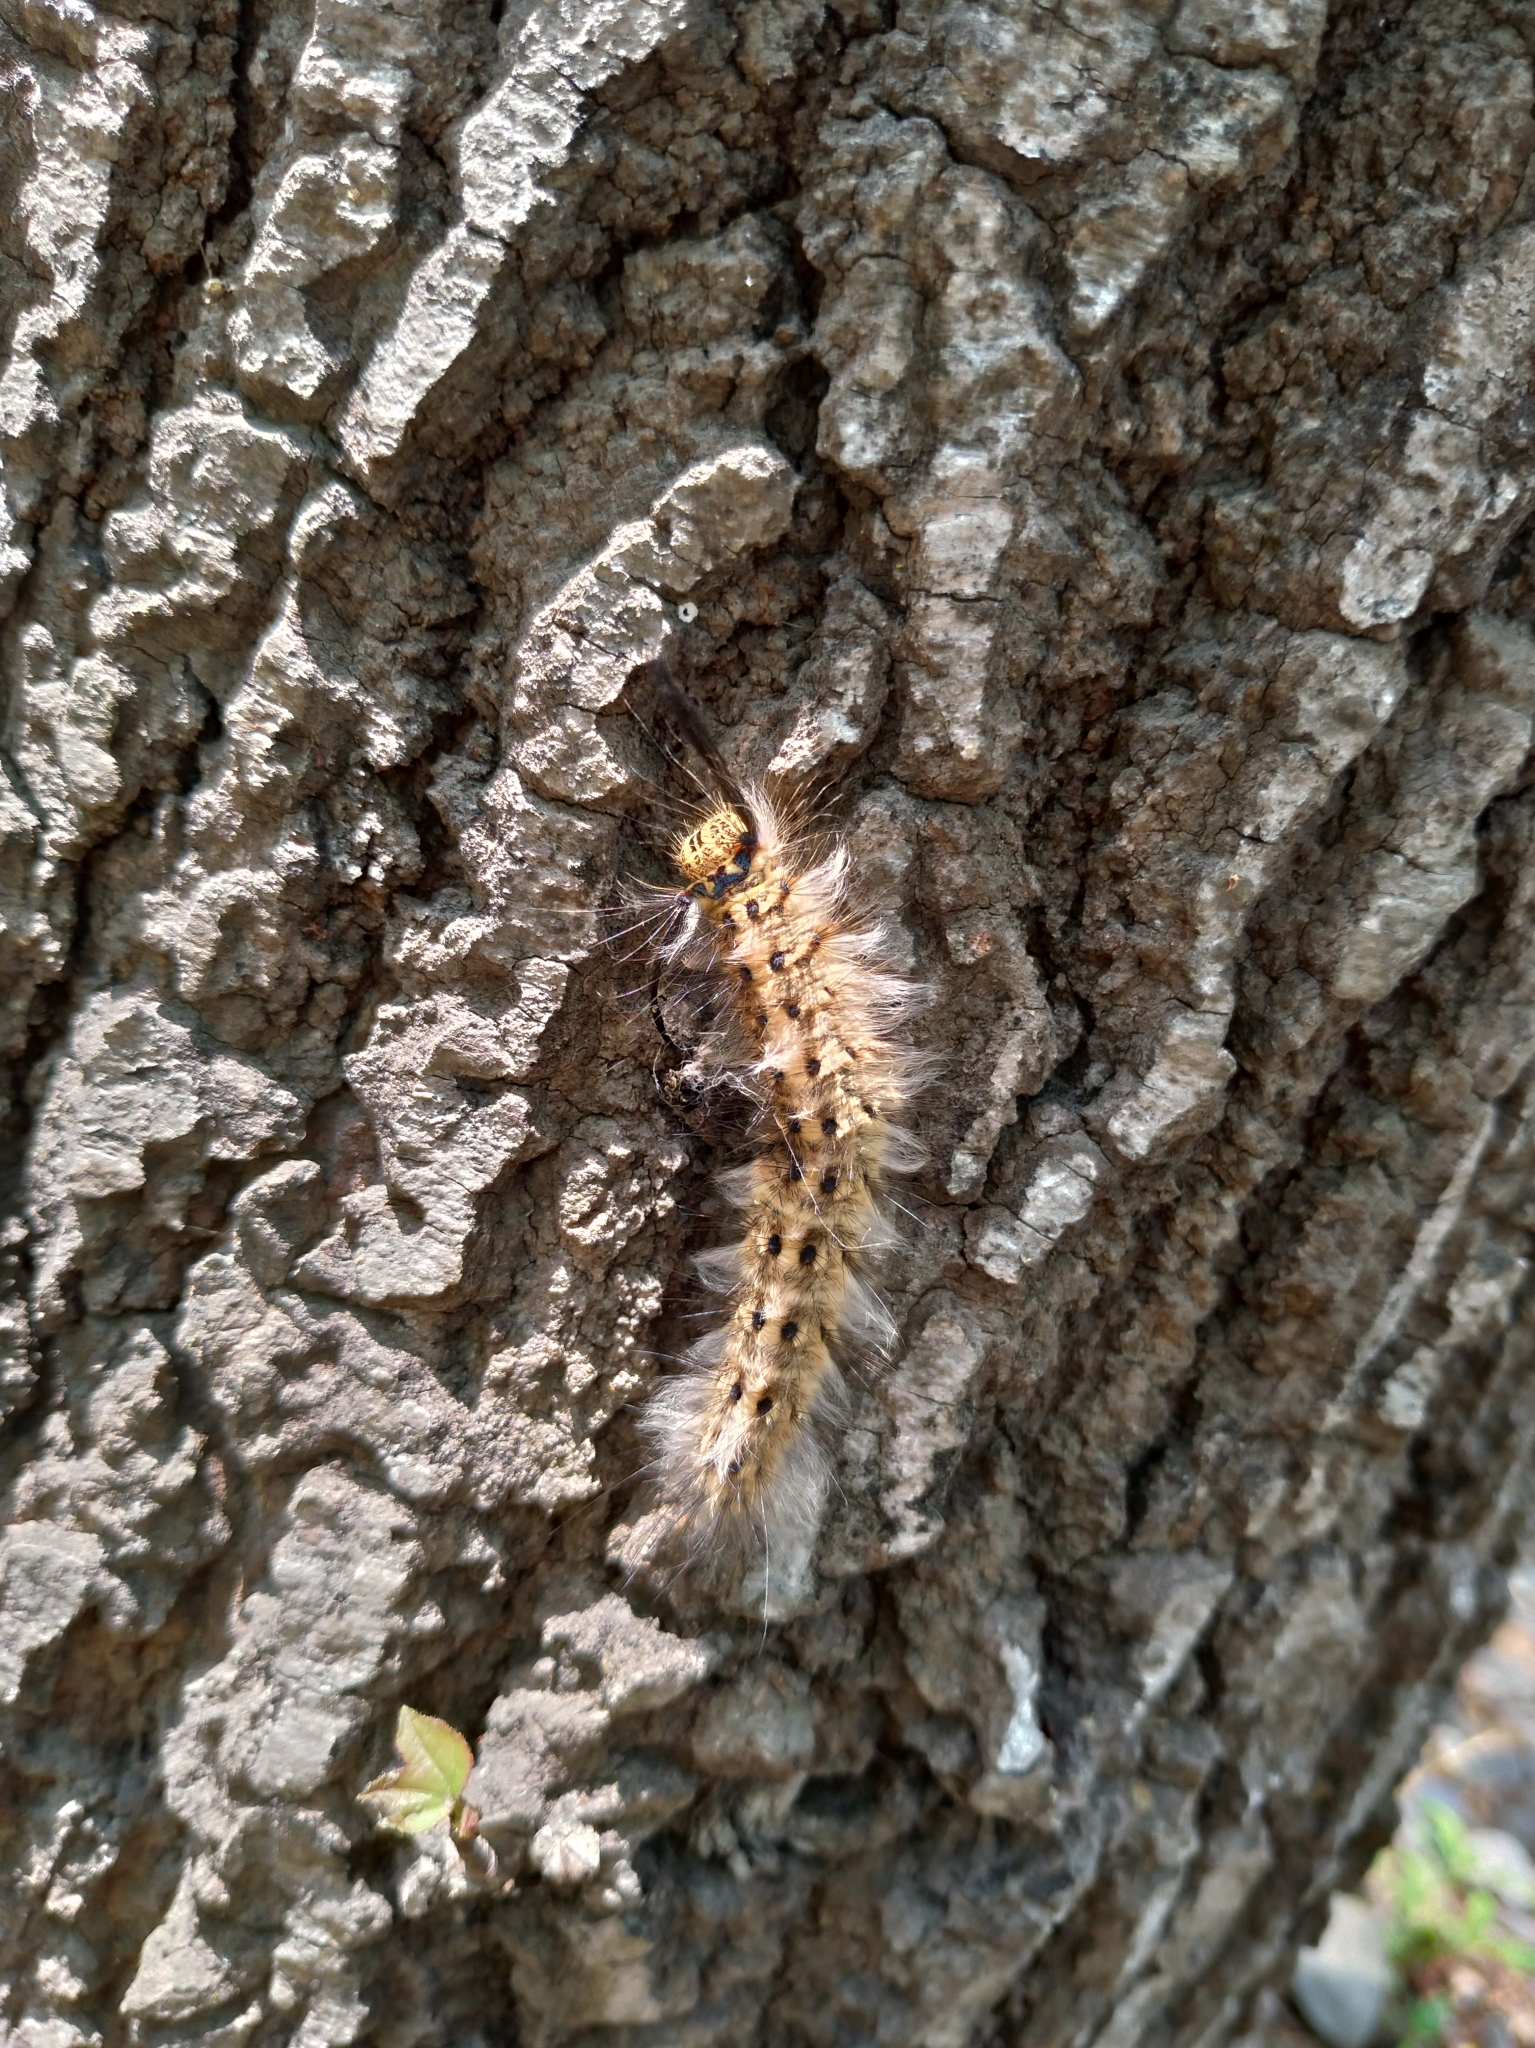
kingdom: Animalia
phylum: Arthropoda
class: Insecta
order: Lepidoptera
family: Lasiocampidae
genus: Trabala
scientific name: Trabala vishnou
